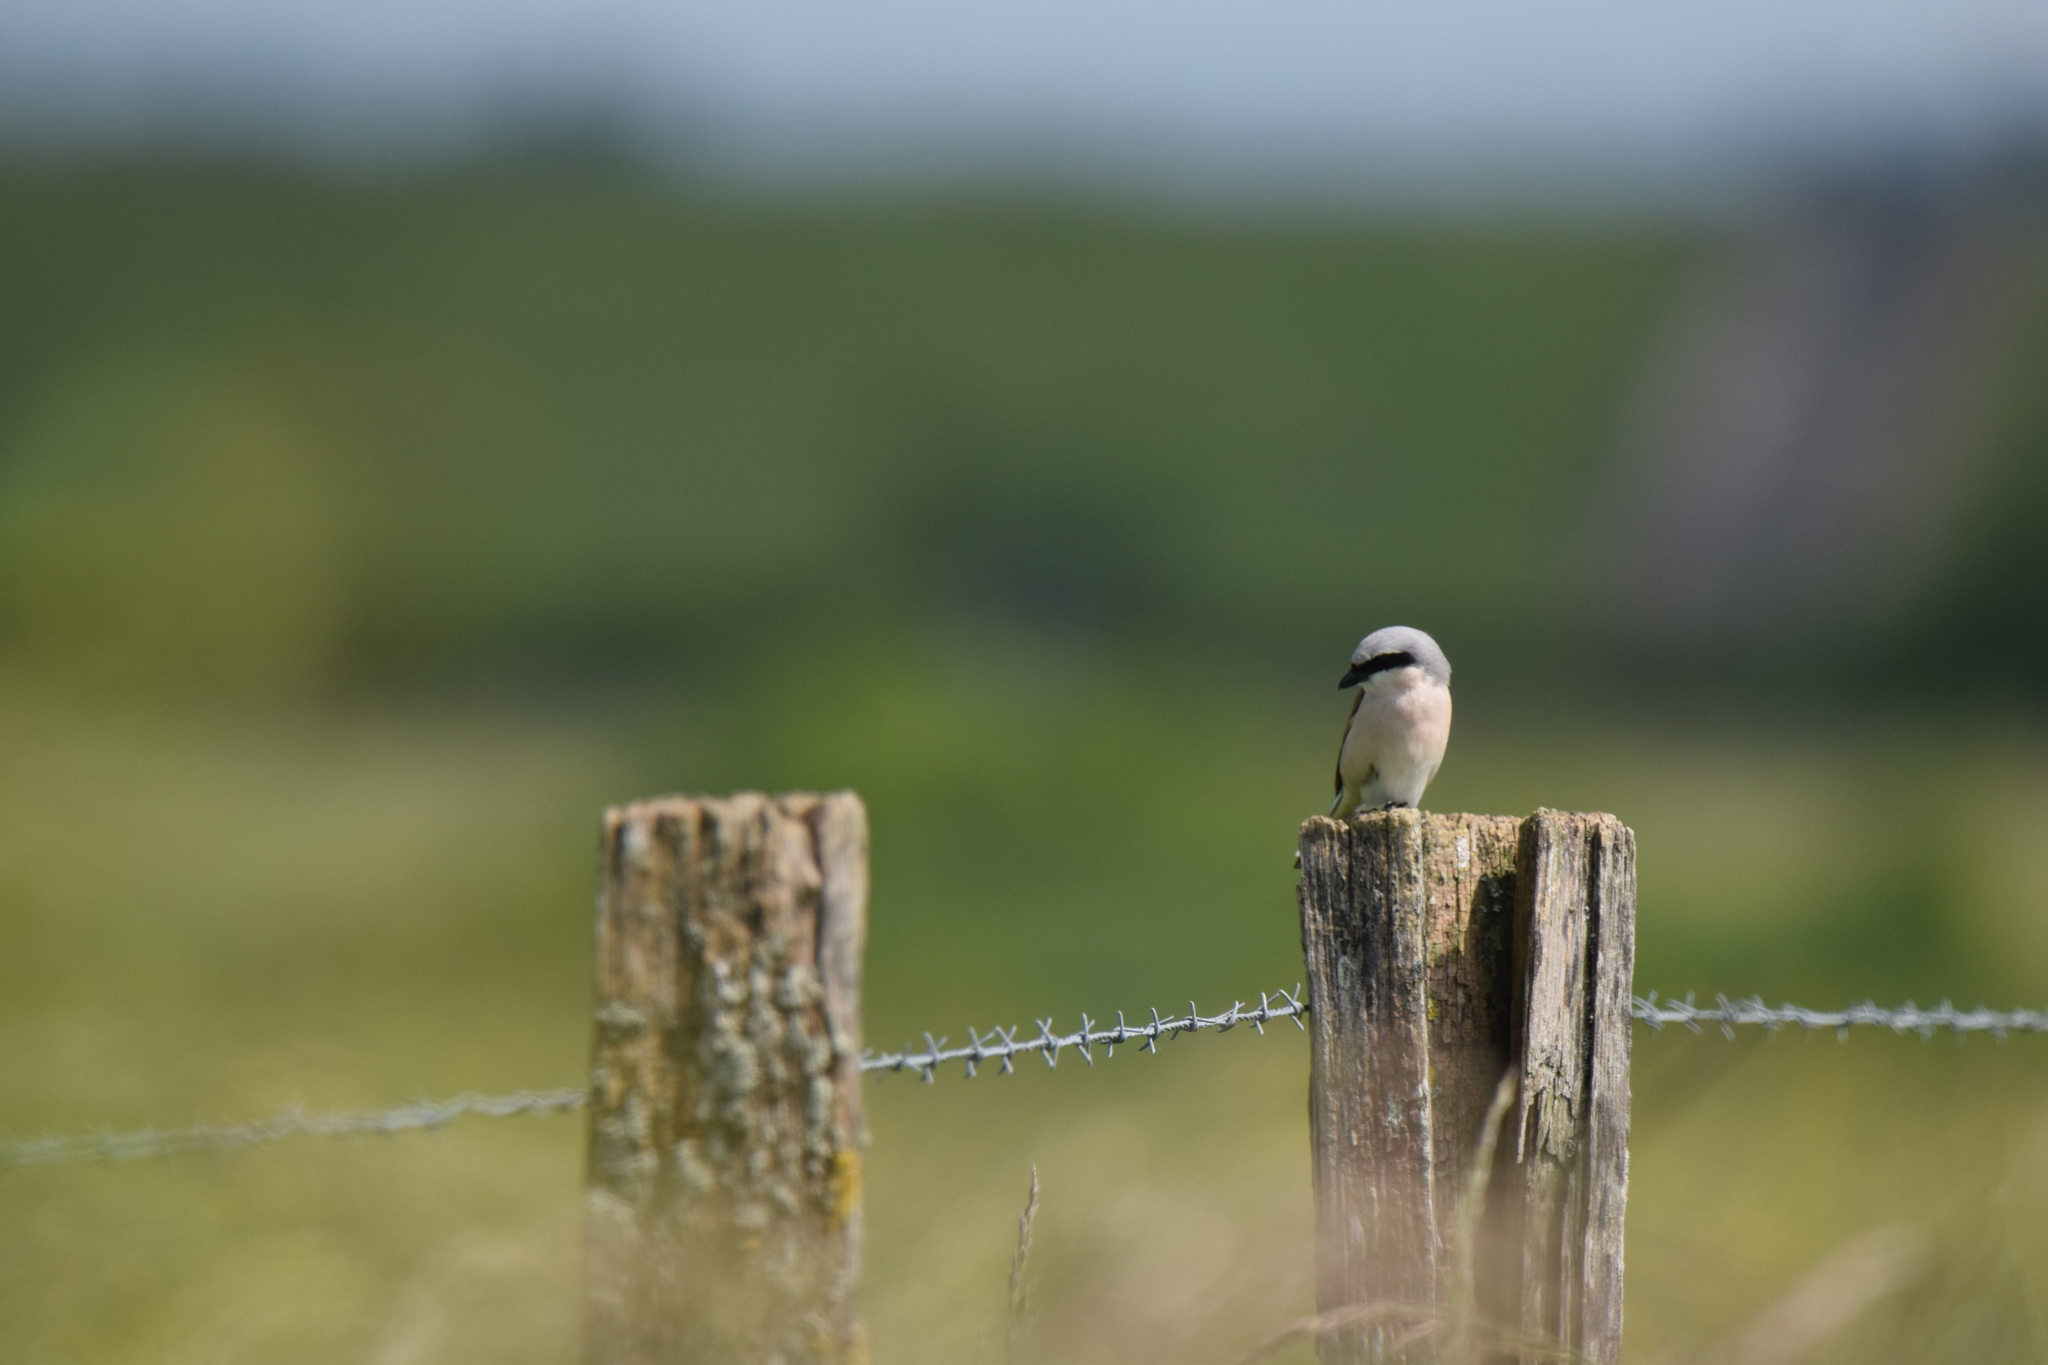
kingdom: Animalia
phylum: Chordata
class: Aves
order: Passeriformes
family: Laniidae
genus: Lanius
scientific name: Lanius collurio
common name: Red-backed shrike
